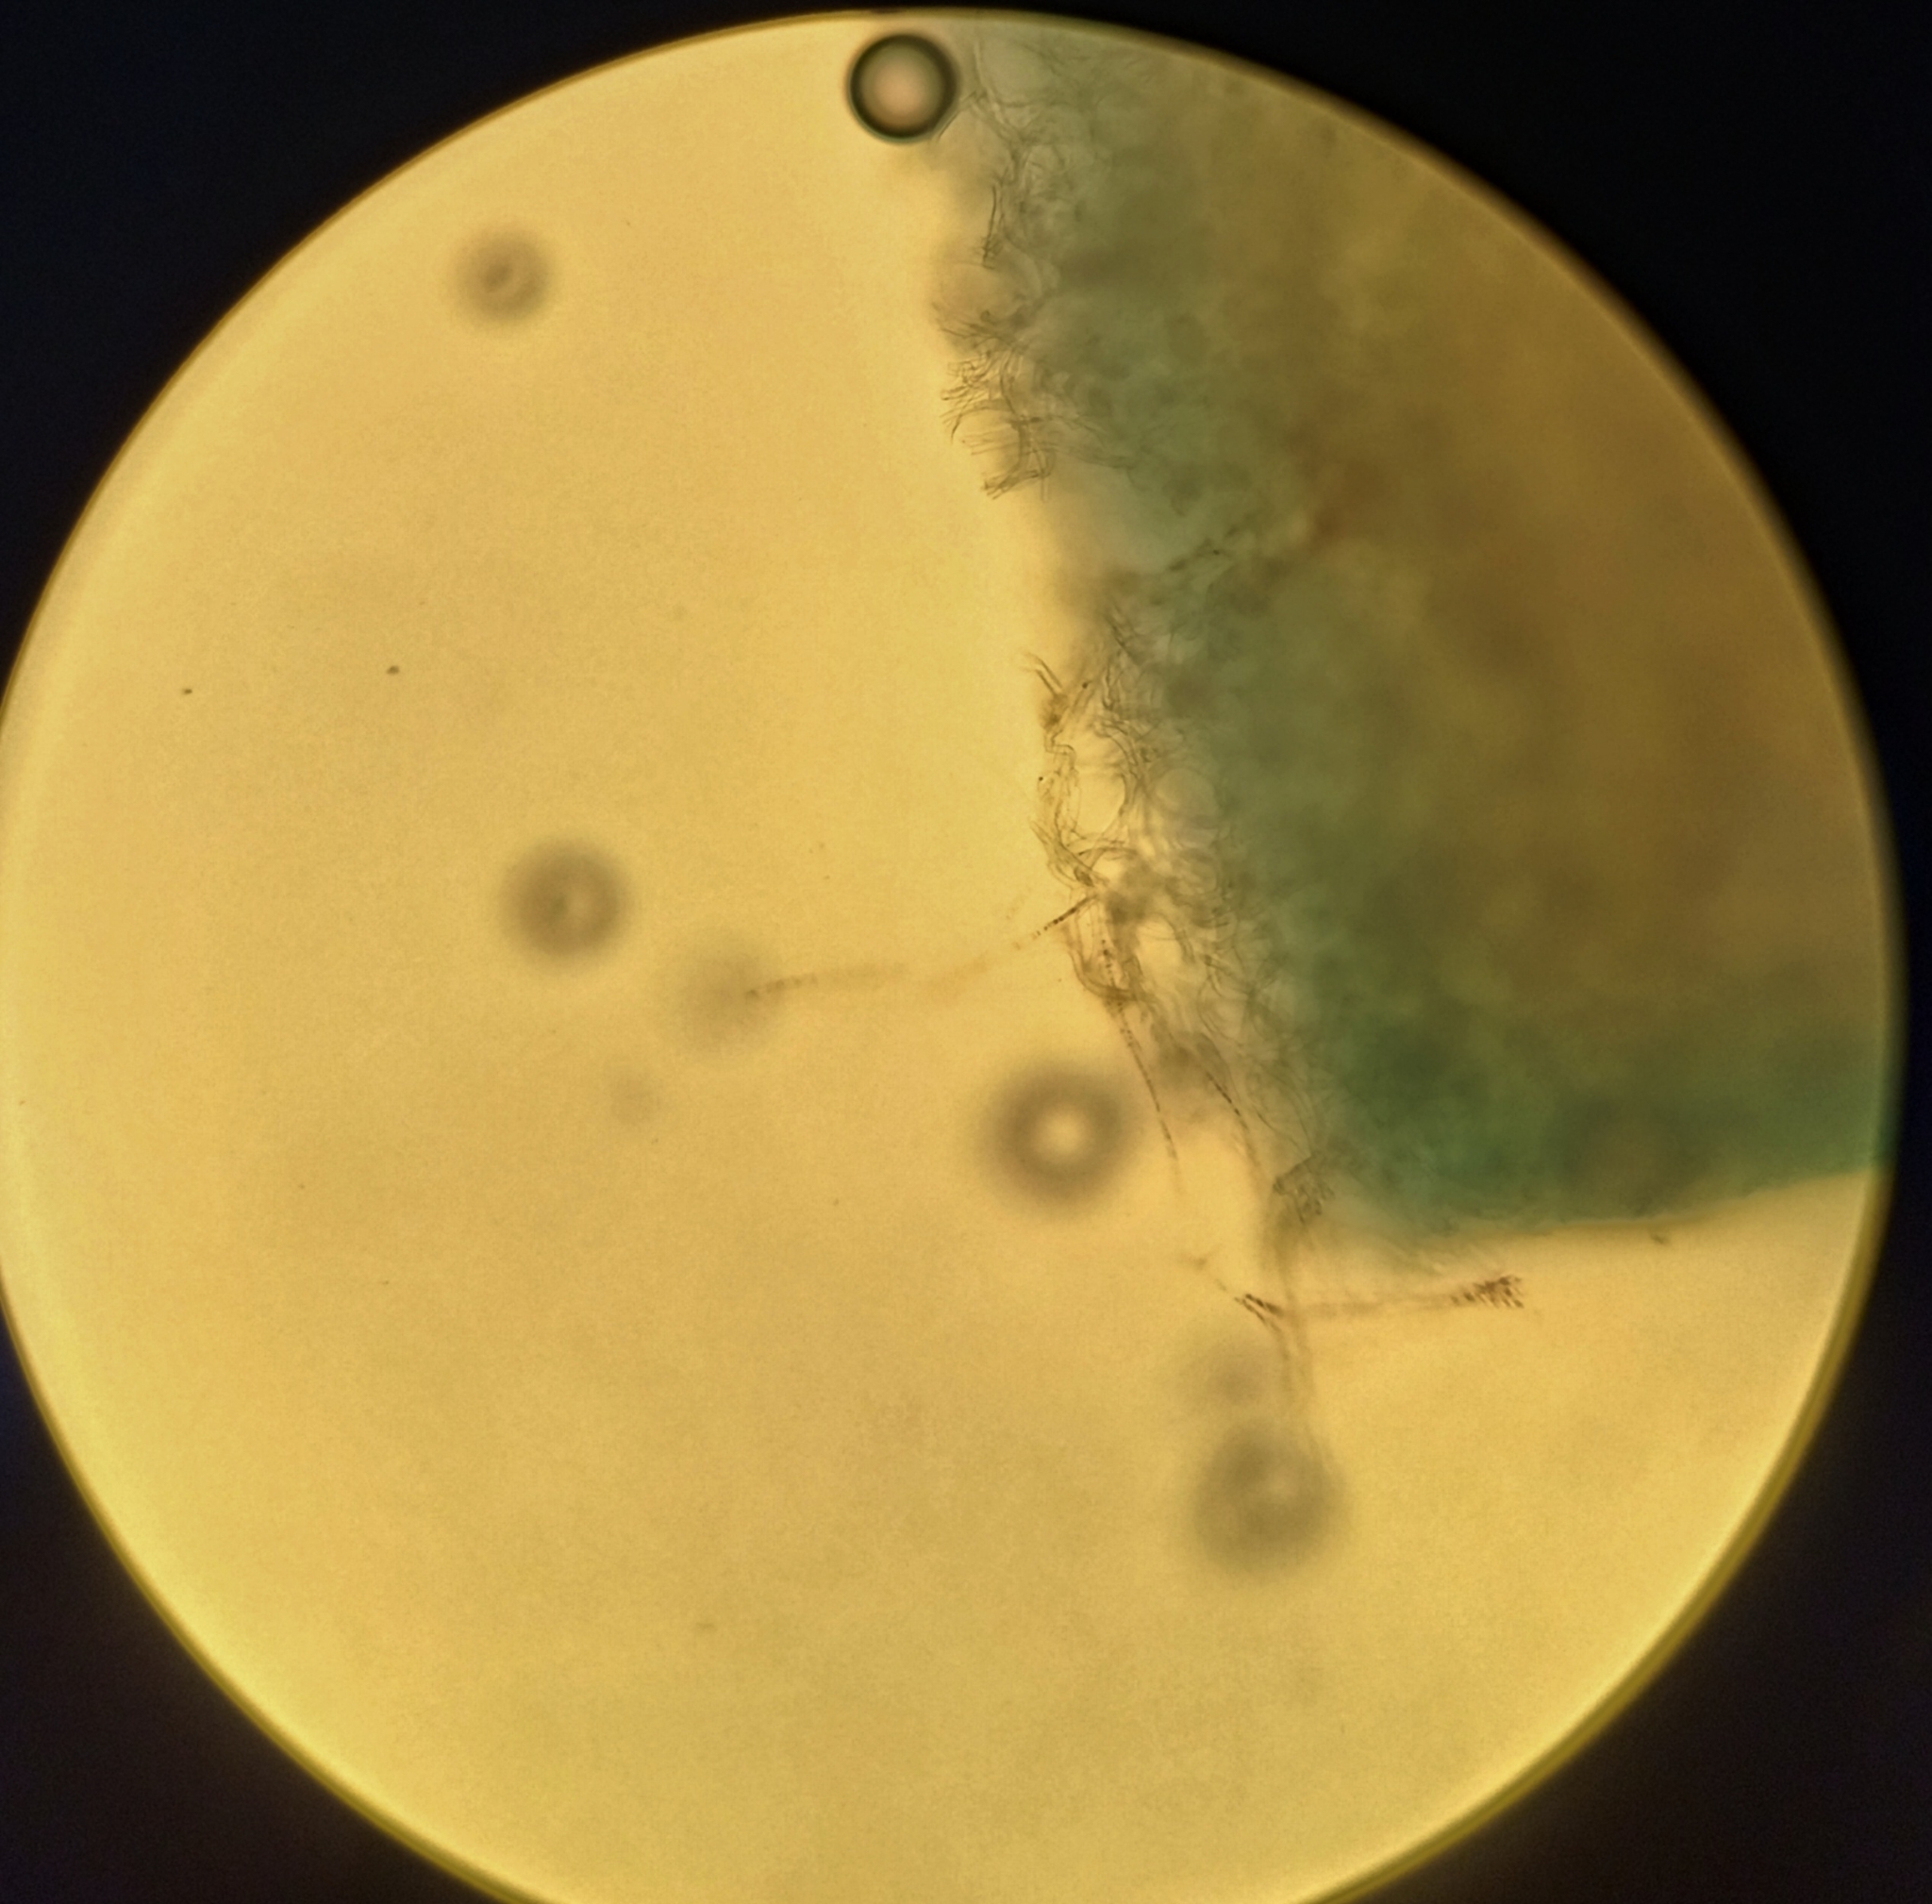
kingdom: Fungi
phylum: Ascomycota
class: Pezizomycetes
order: Pezizales
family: Sarcoscyphaceae
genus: Sarcoscypha
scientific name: Sarcoscypha austriaca
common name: Scarlet elfcup
